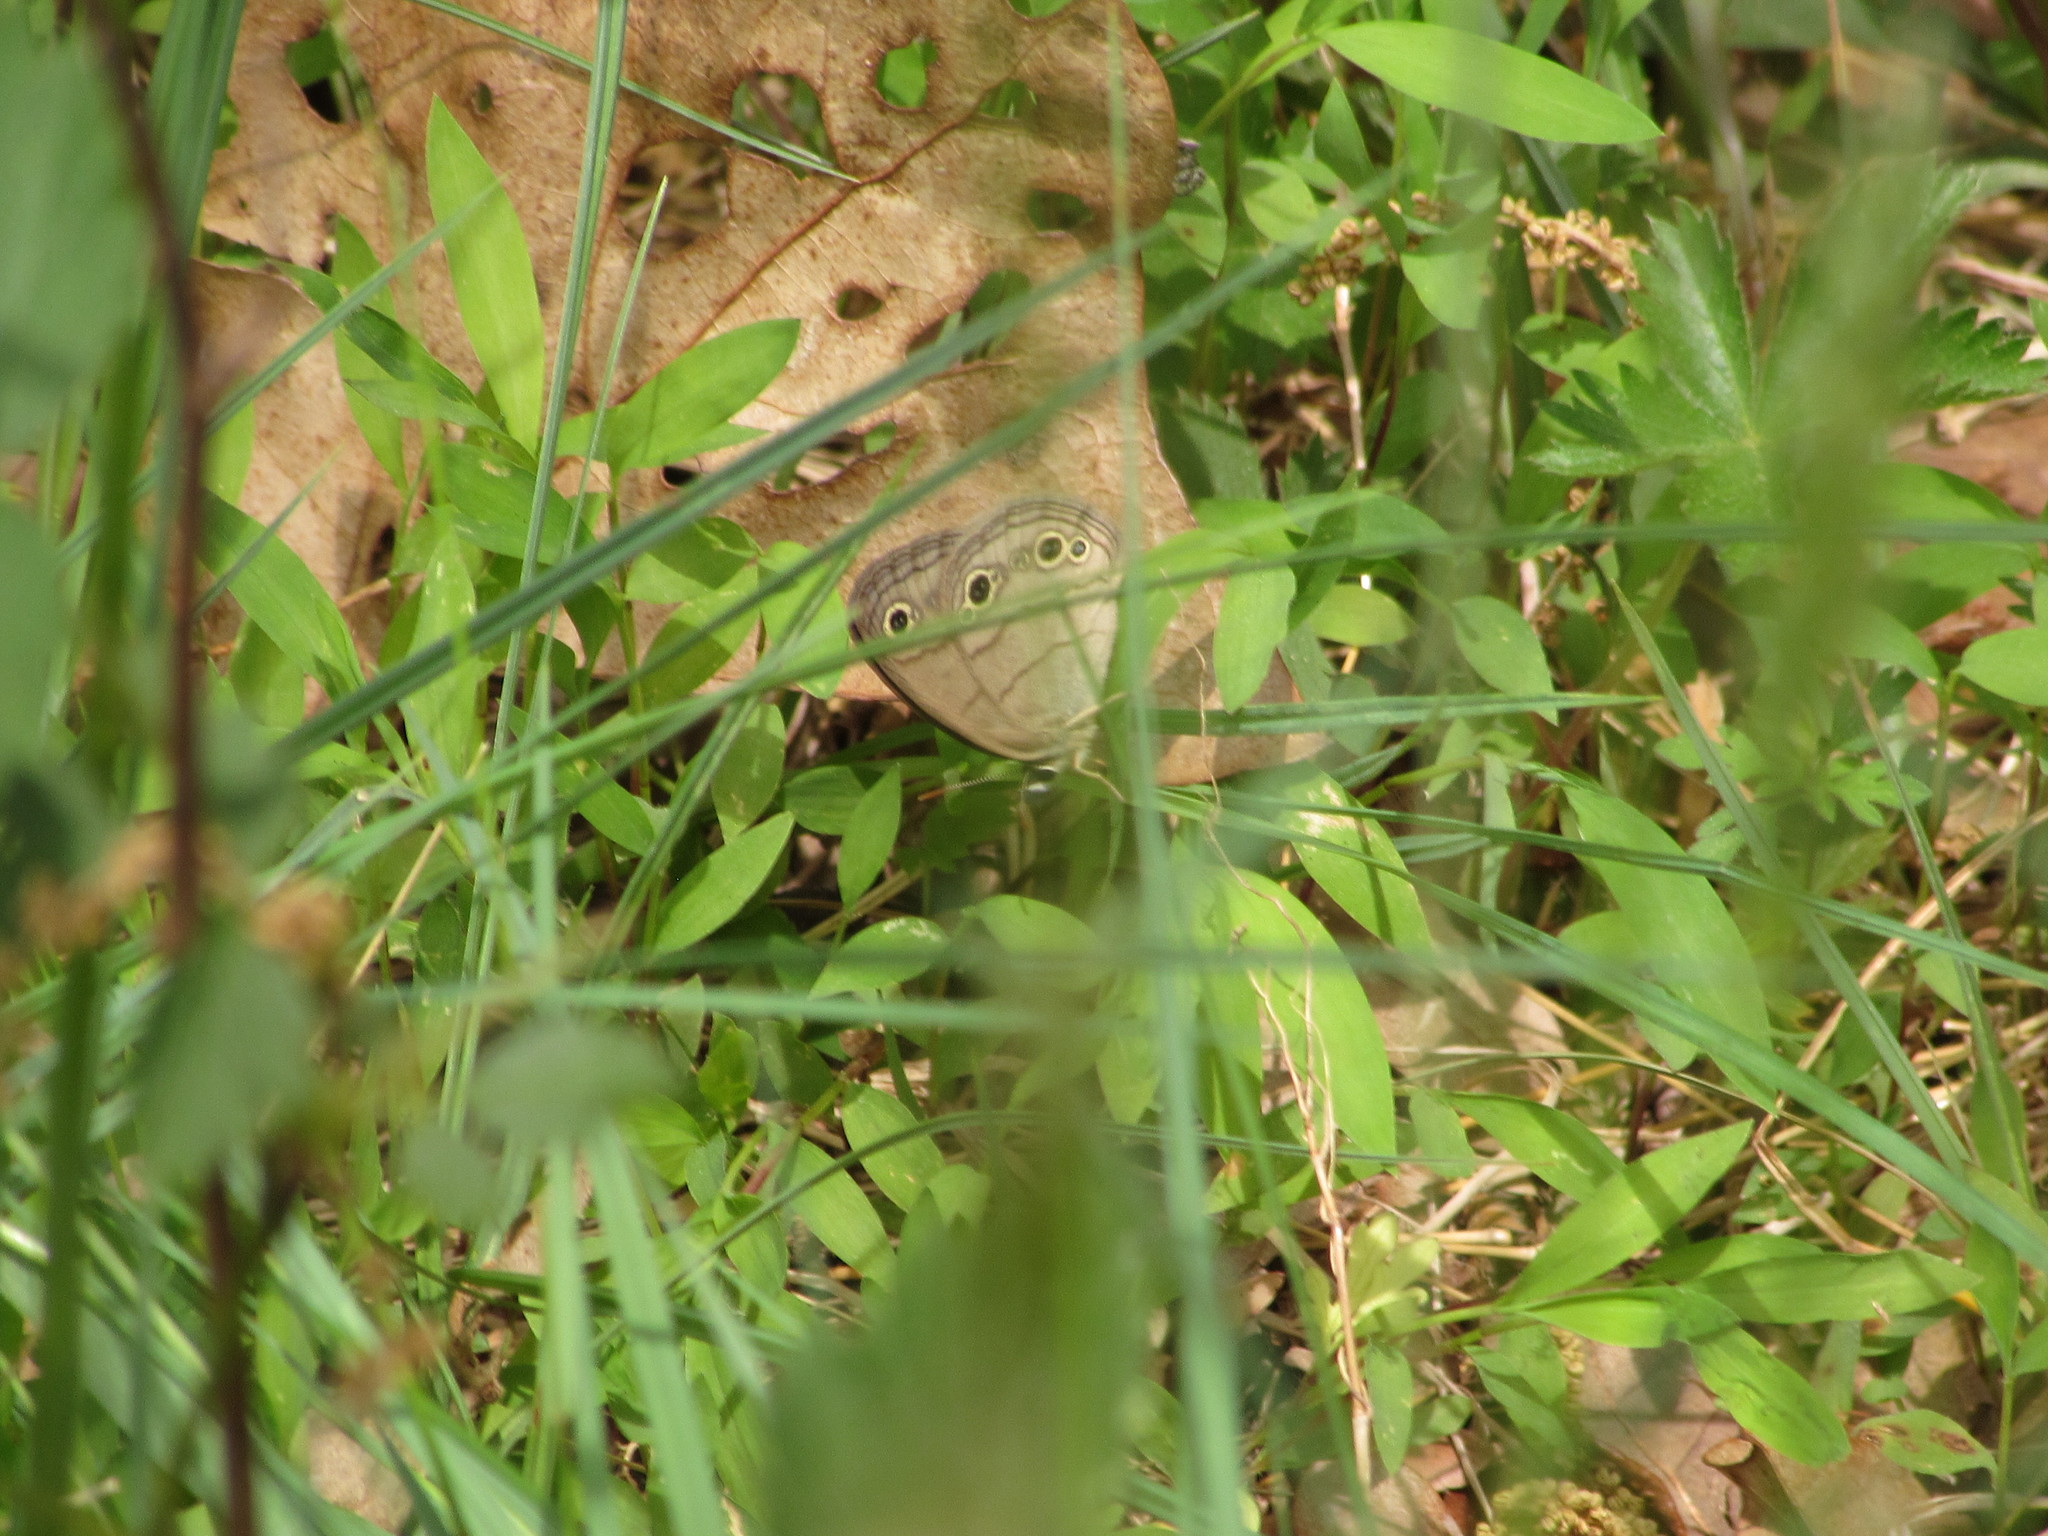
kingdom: Animalia
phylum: Arthropoda
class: Insecta
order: Lepidoptera
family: Nymphalidae
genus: Euptychia
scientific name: Euptychia cymela
